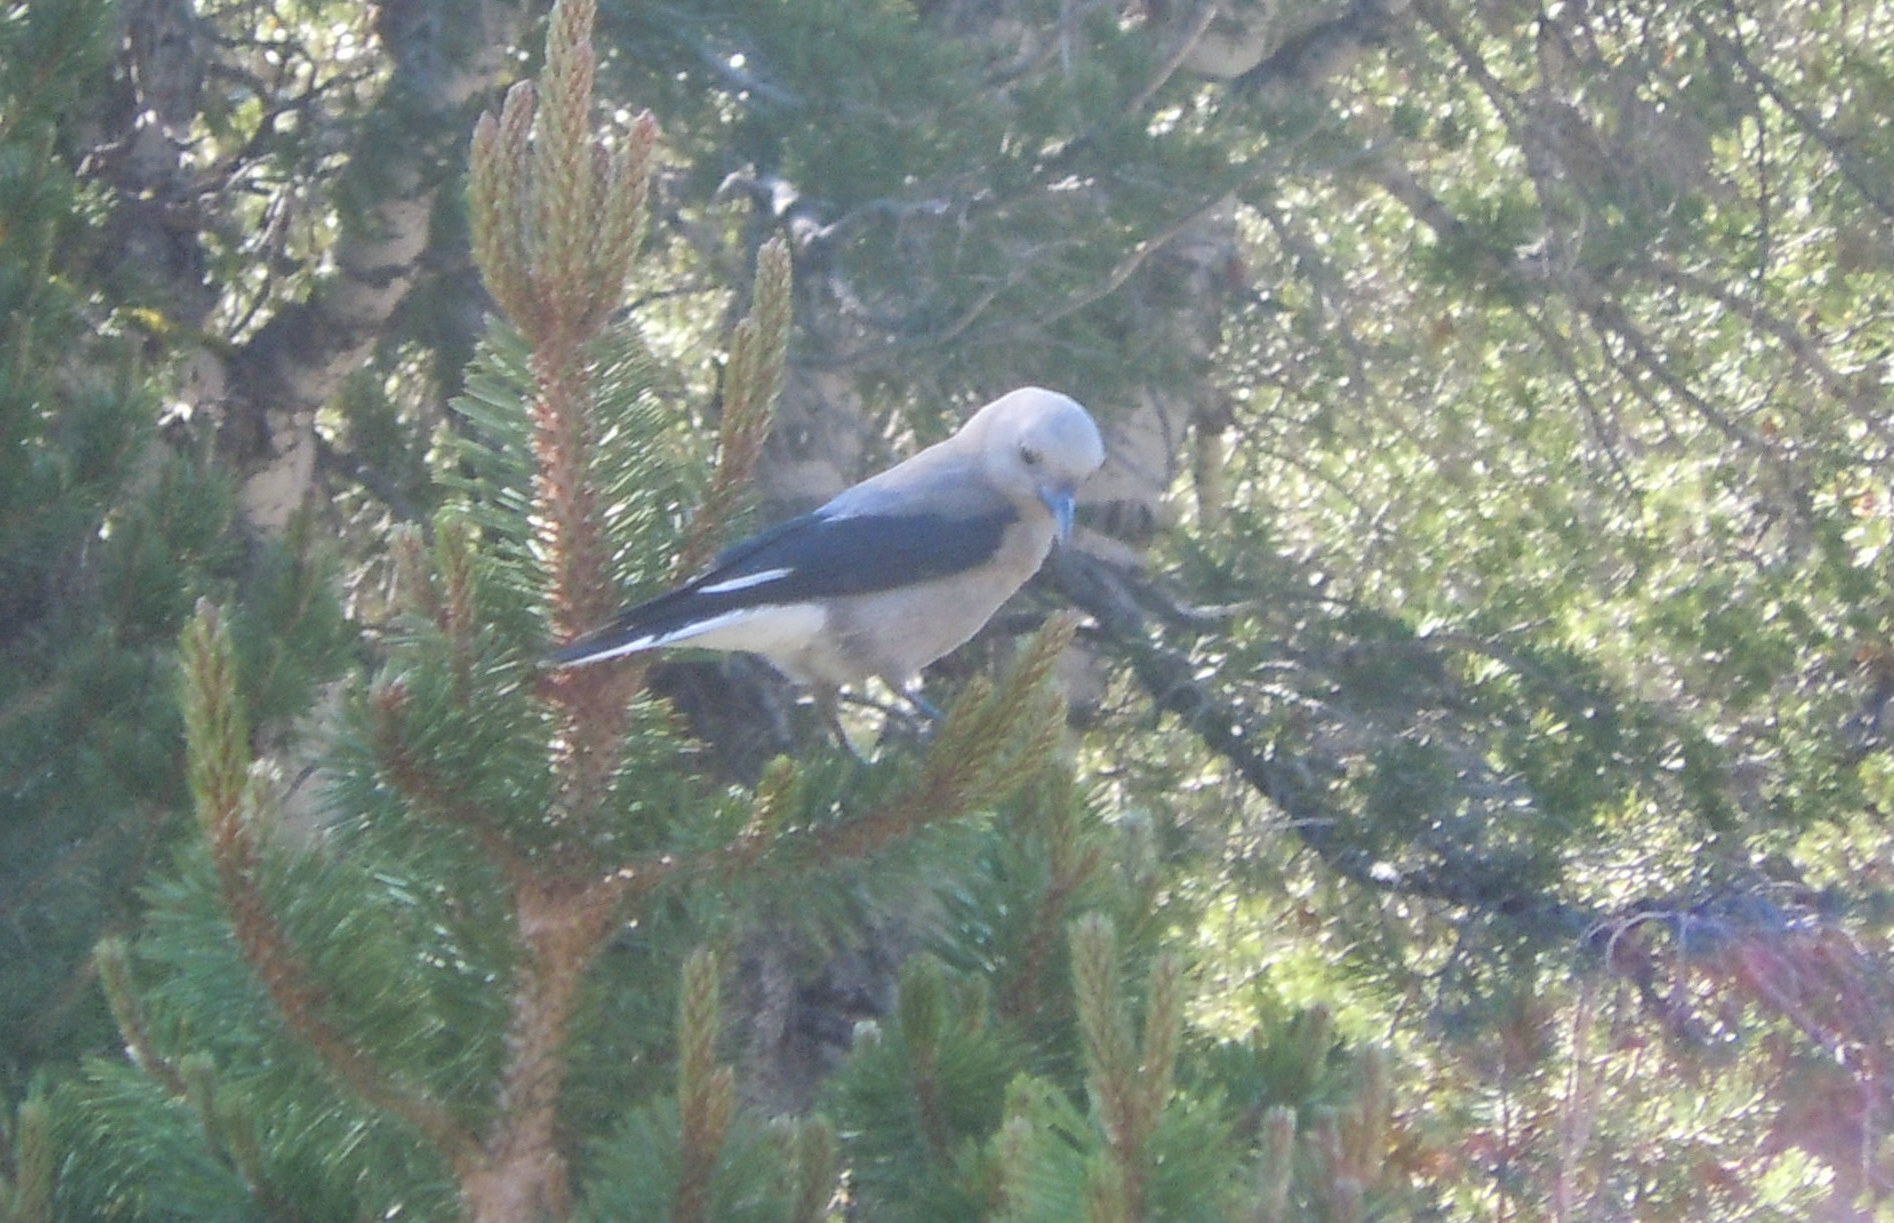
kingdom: Animalia
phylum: Chordata
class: Aves
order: Passeriformes
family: Corvidae
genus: Nucifraga
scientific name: Nucifraga columbiana
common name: Clark's nutcracker
